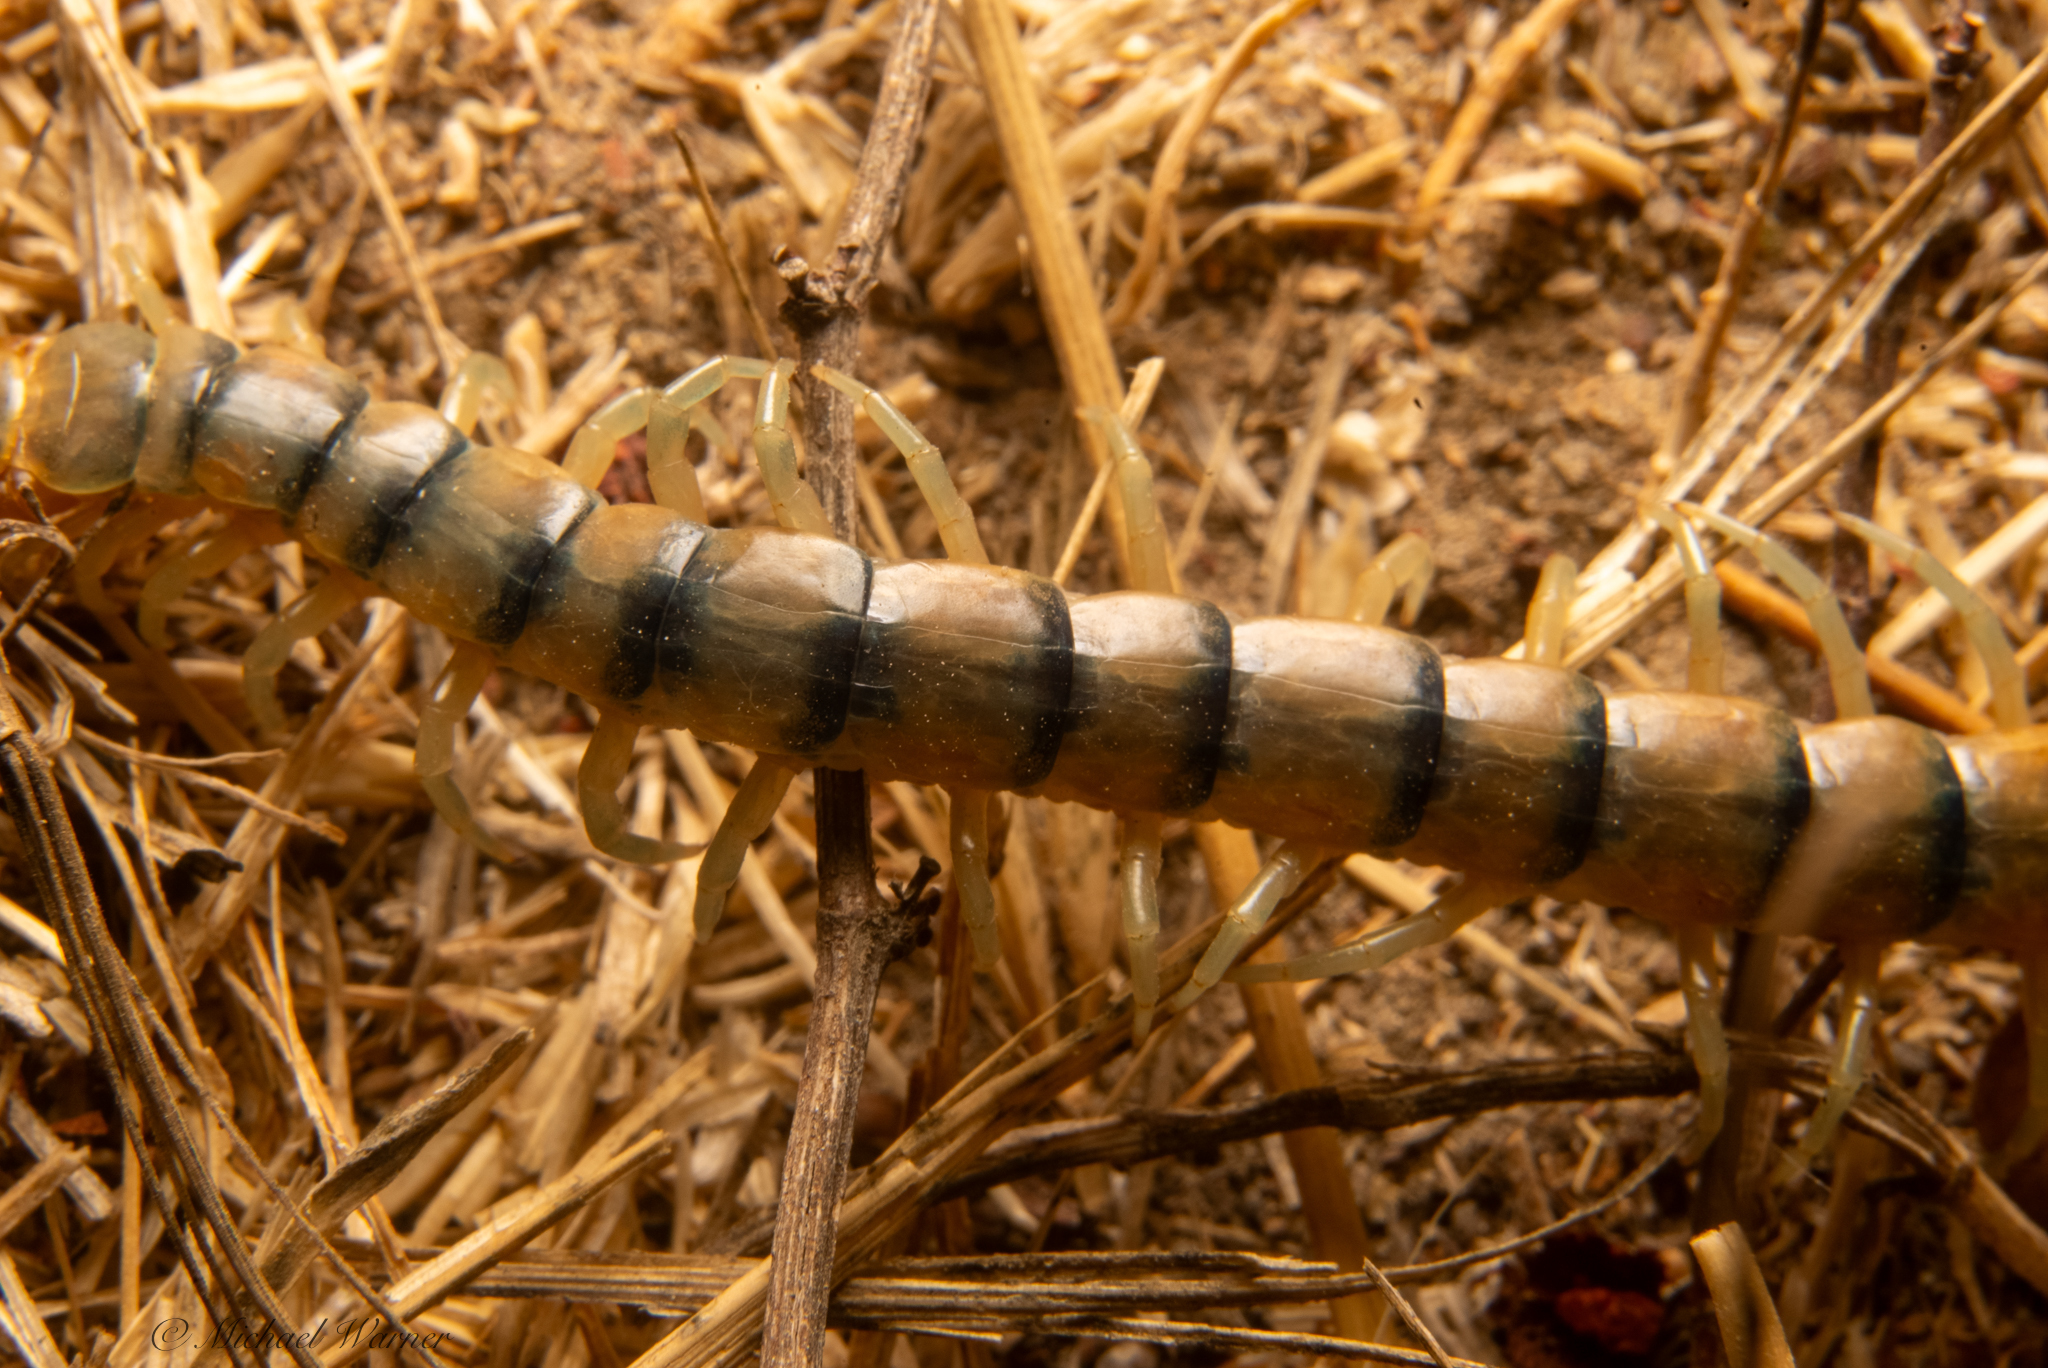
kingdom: Animalia
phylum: Arthropoda
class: Chilopoda
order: Scolopendromorpha
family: Scolopendridae
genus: Scolopendra
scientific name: Scolopendra polymorpha
